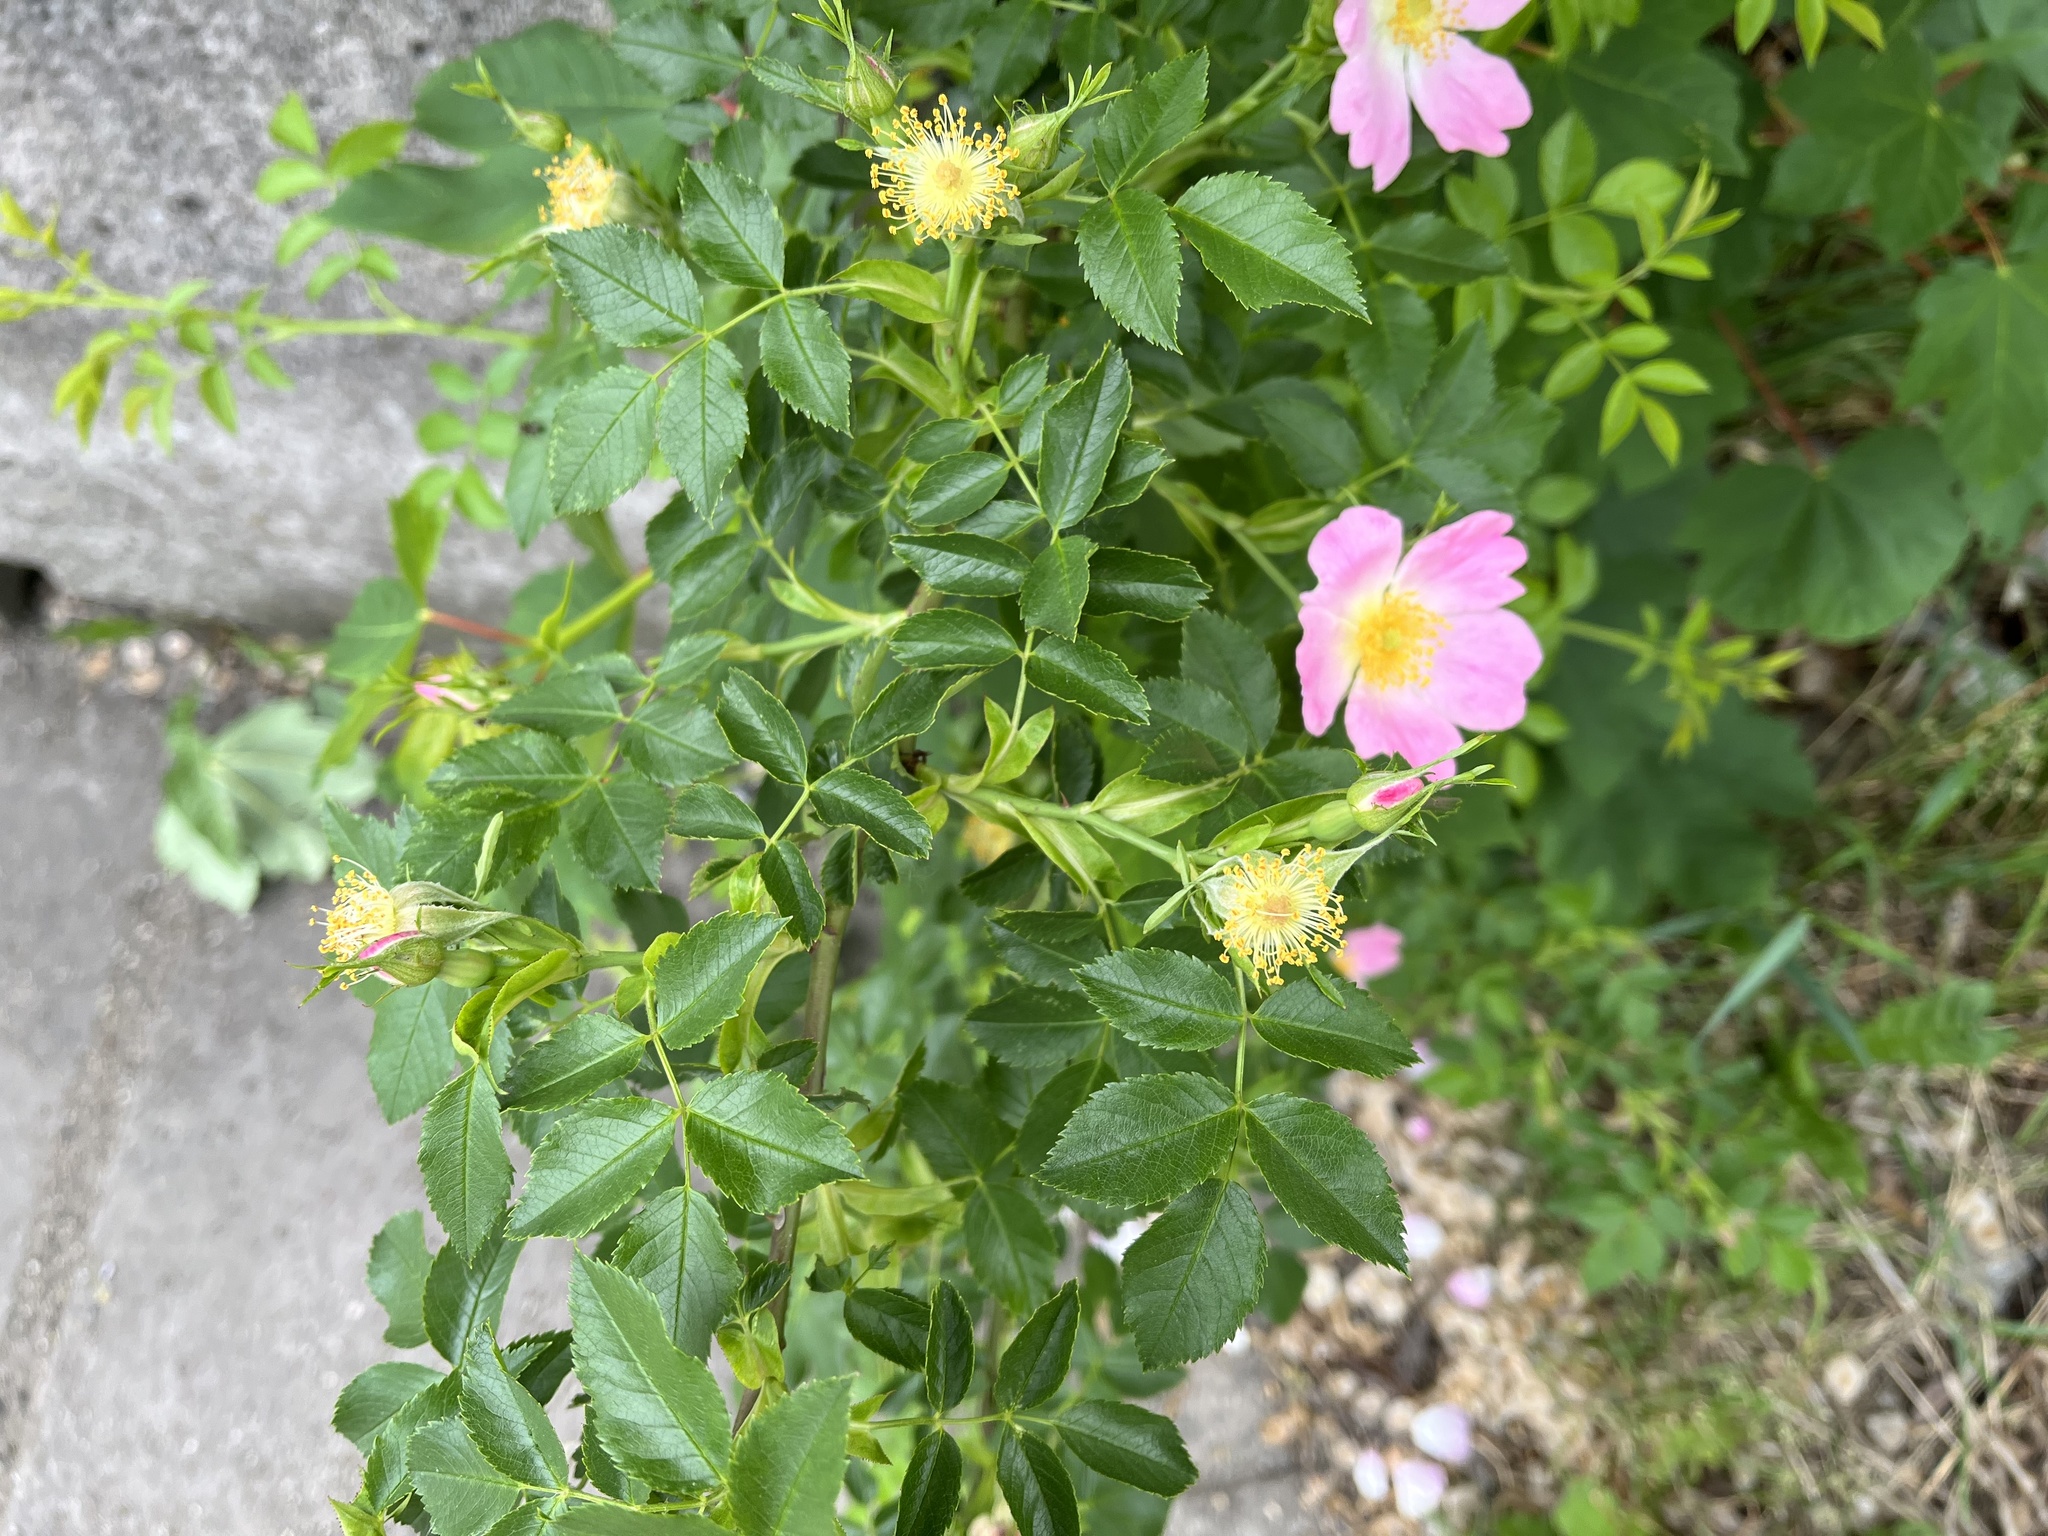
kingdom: Plantae
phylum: Tracheophyta
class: Magnoliopsida
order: Rosales
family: Rosaceae
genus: Rosa
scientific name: Rosa canina
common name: Dog rose
